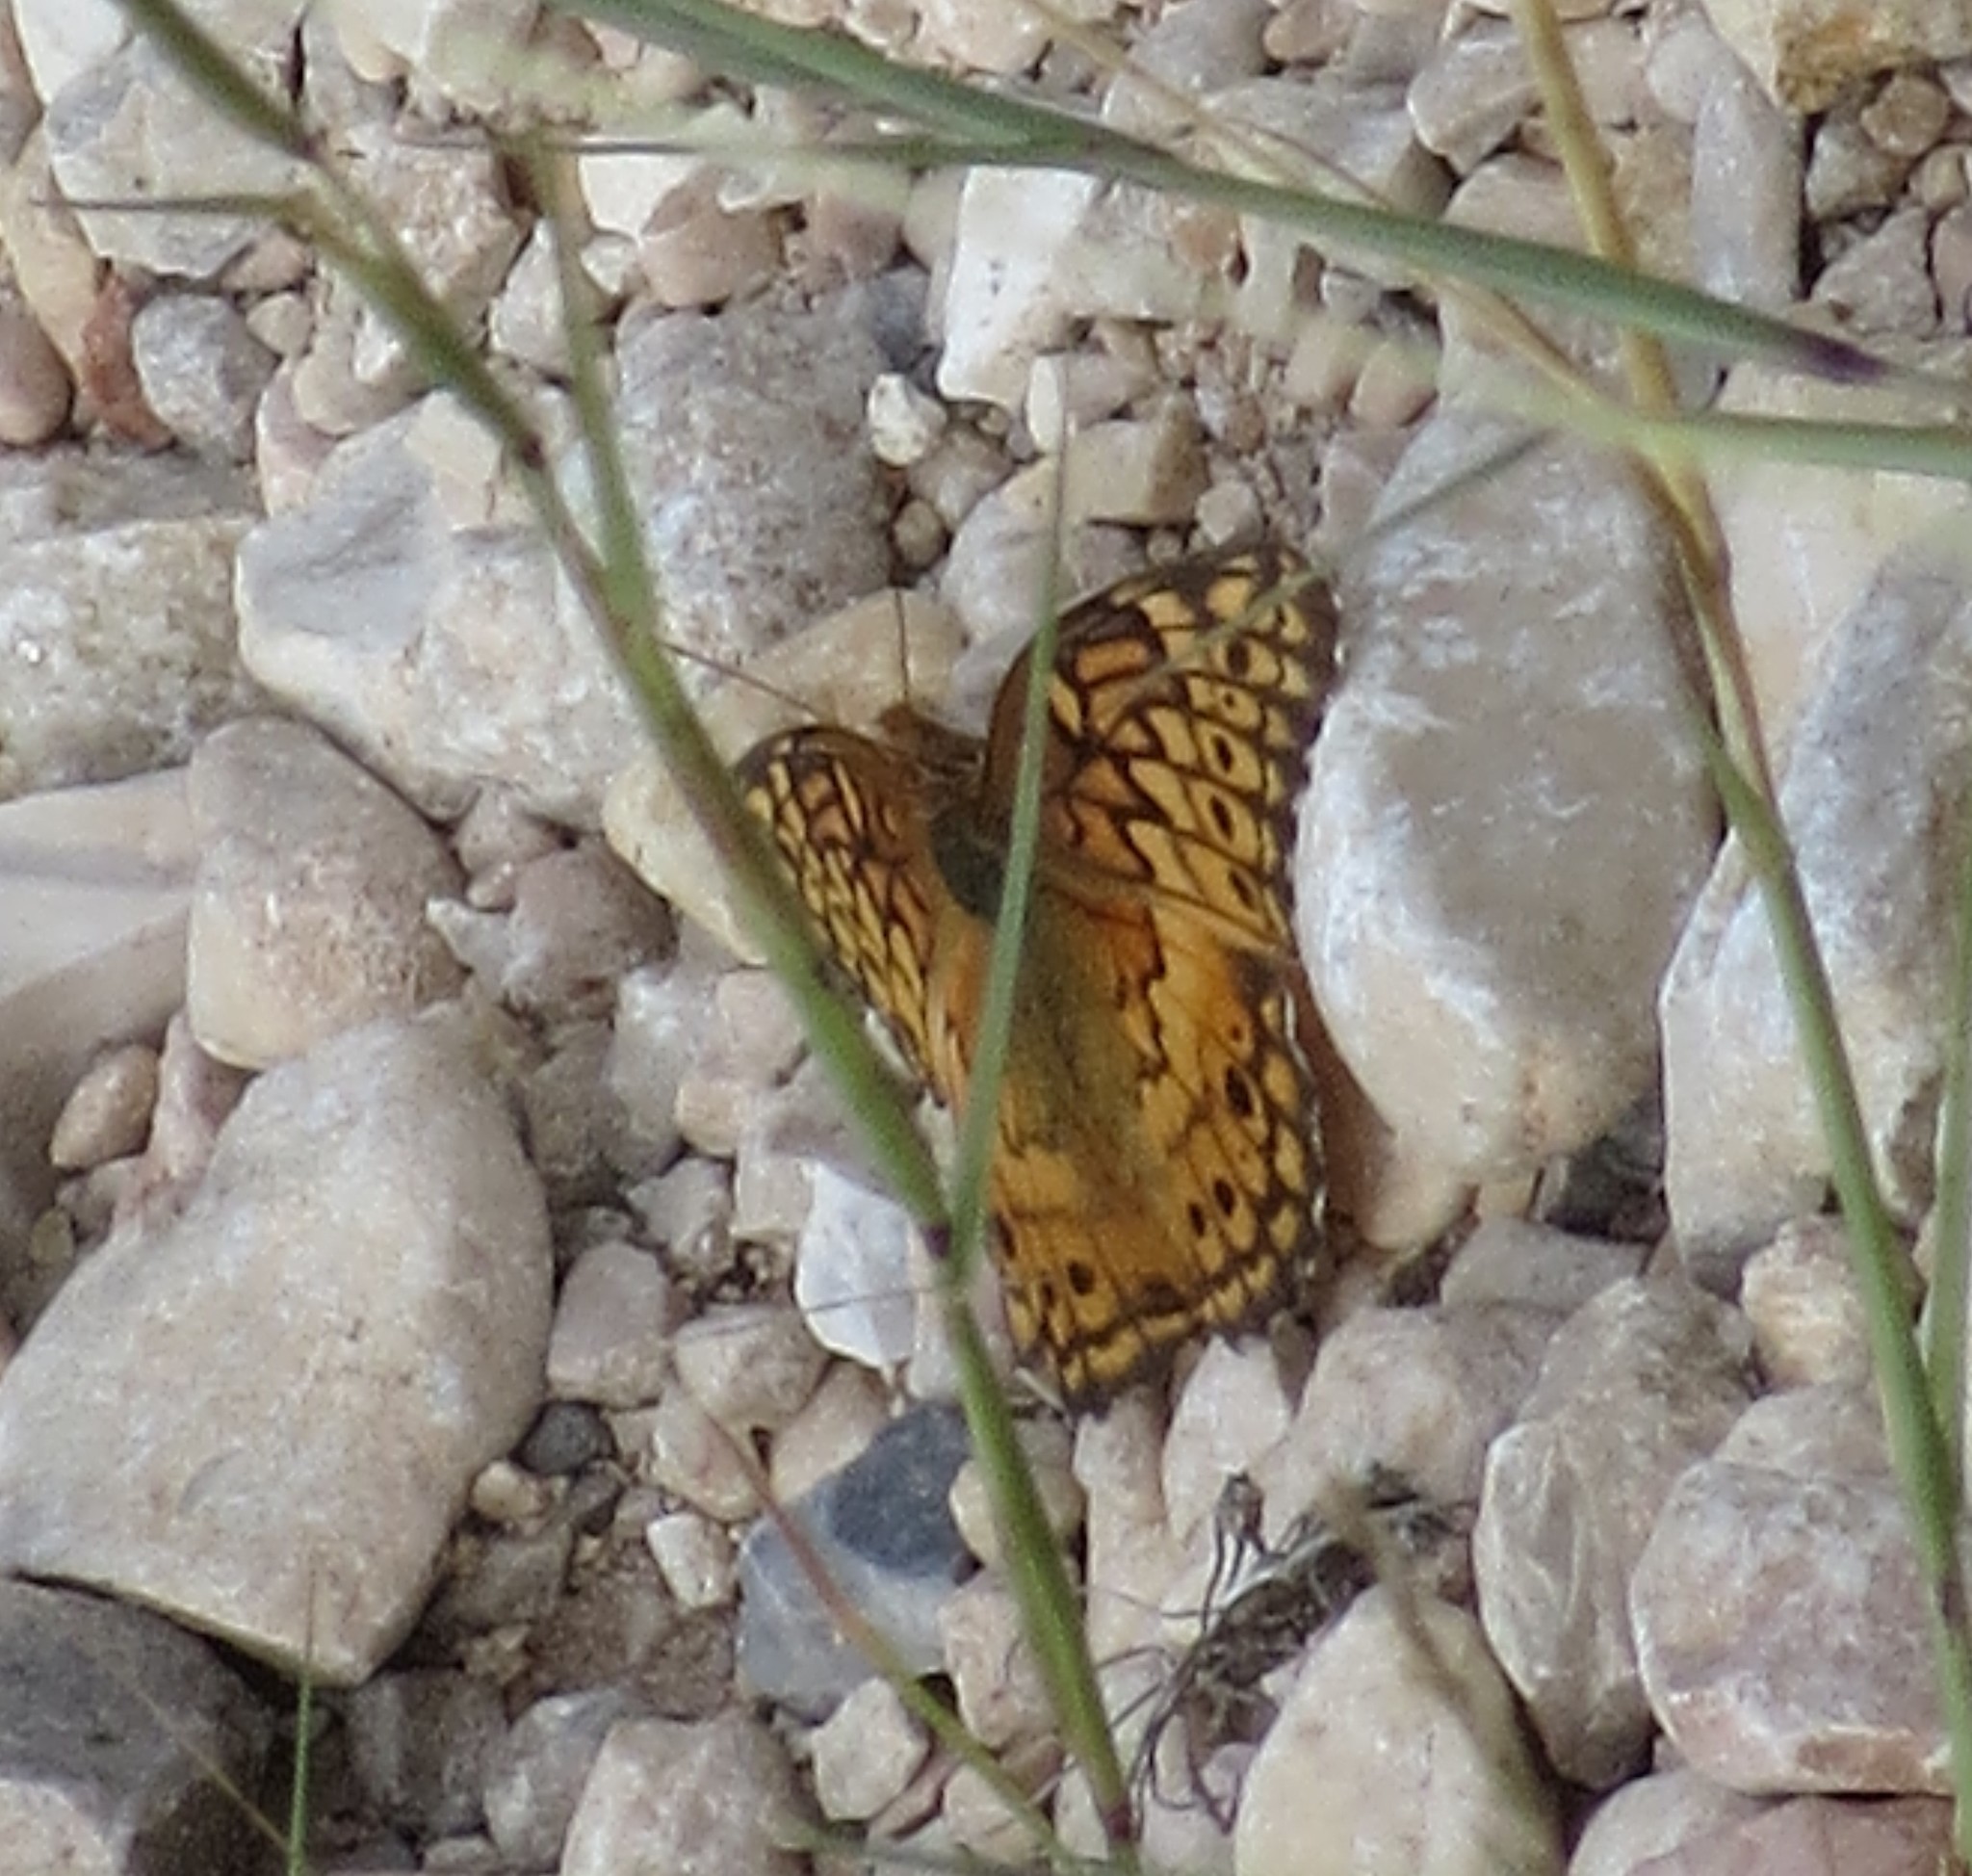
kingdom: Animalia
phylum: Arthropoda
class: Insecta
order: Lepidoptera
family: Nymphalidae
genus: Euptoieta
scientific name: Euptoieta claudia
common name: Variegated fritillary
